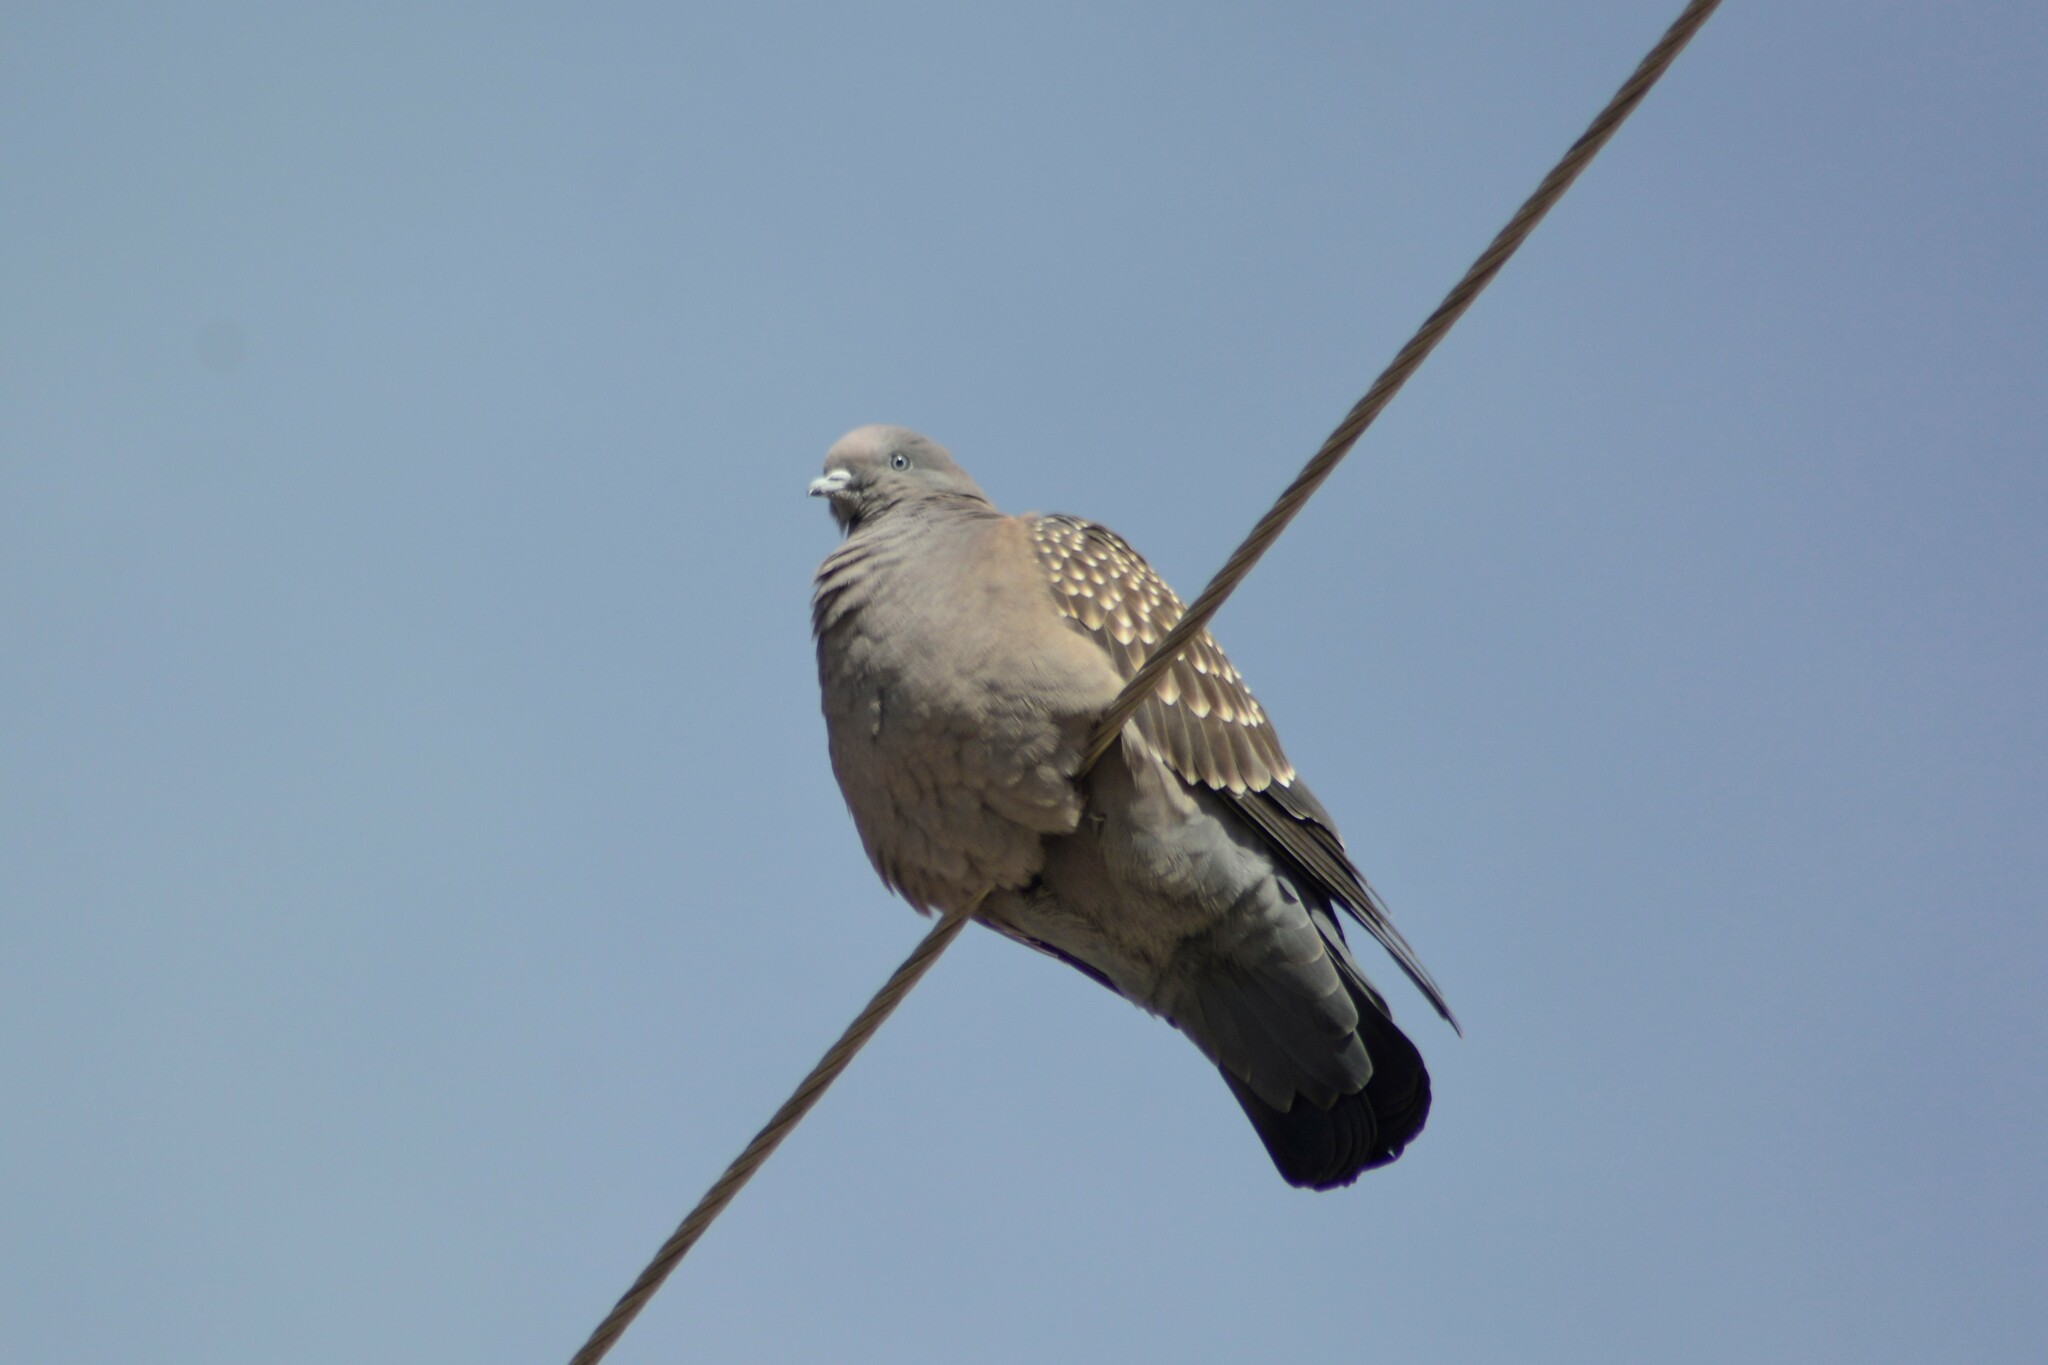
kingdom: Animalia
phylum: Chordata
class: Aves
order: Columbiformes
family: Columbidae
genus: Patagioenas
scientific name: Patagioenas maculosa
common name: Spot-winged pigeon
